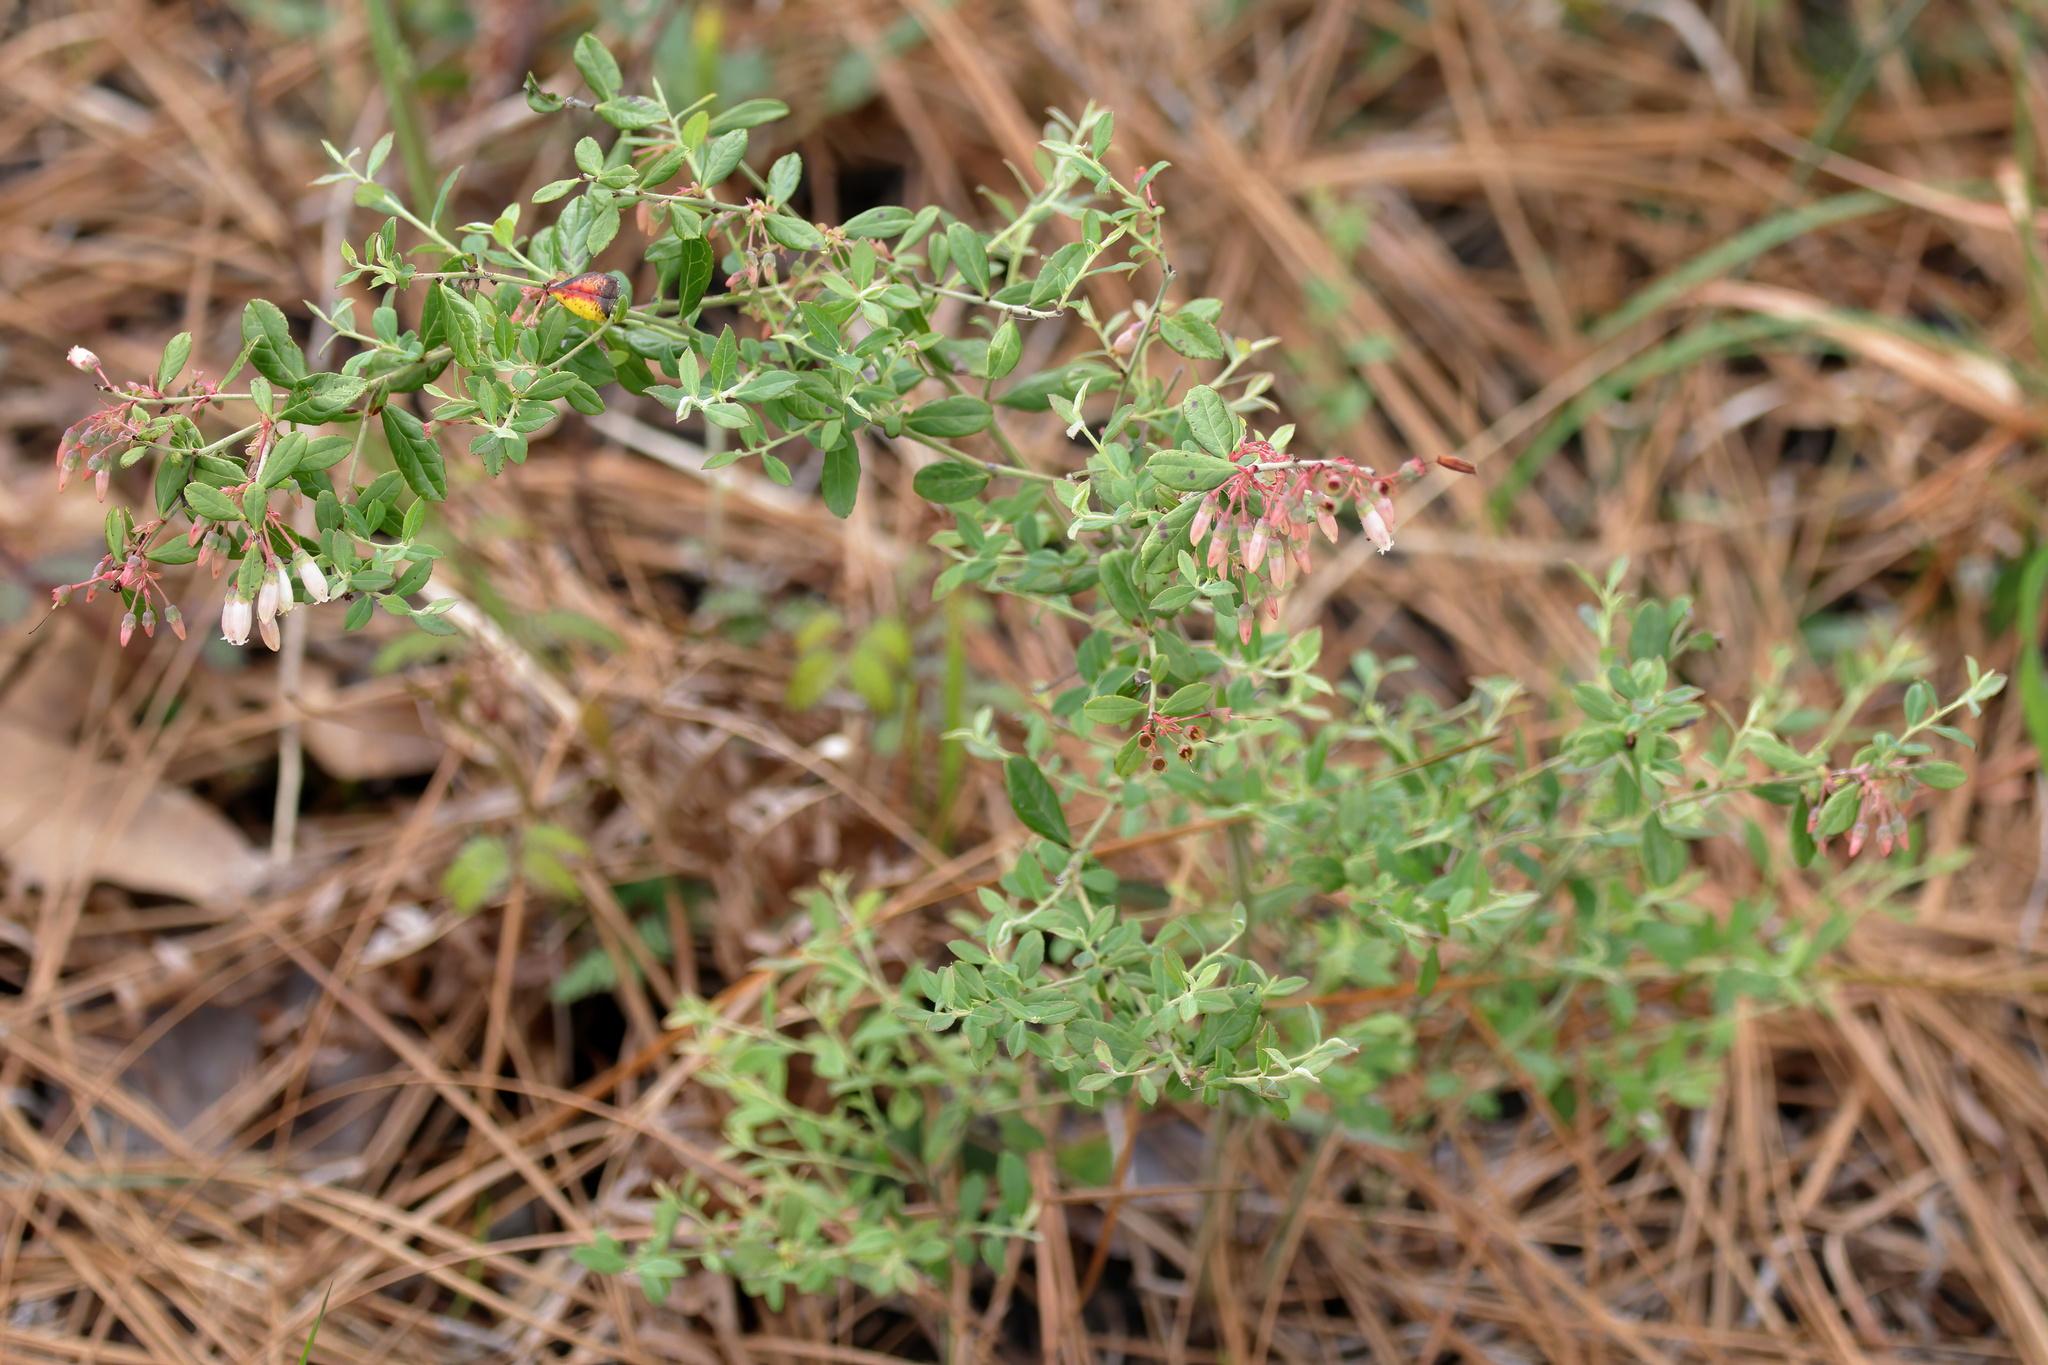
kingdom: Plantae
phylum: Tracheophyta
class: Magnoliopsida
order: Ericales
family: Ericaceae
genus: Vaccinium
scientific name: Vaccinium darrowii
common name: Darrow's blueberry
